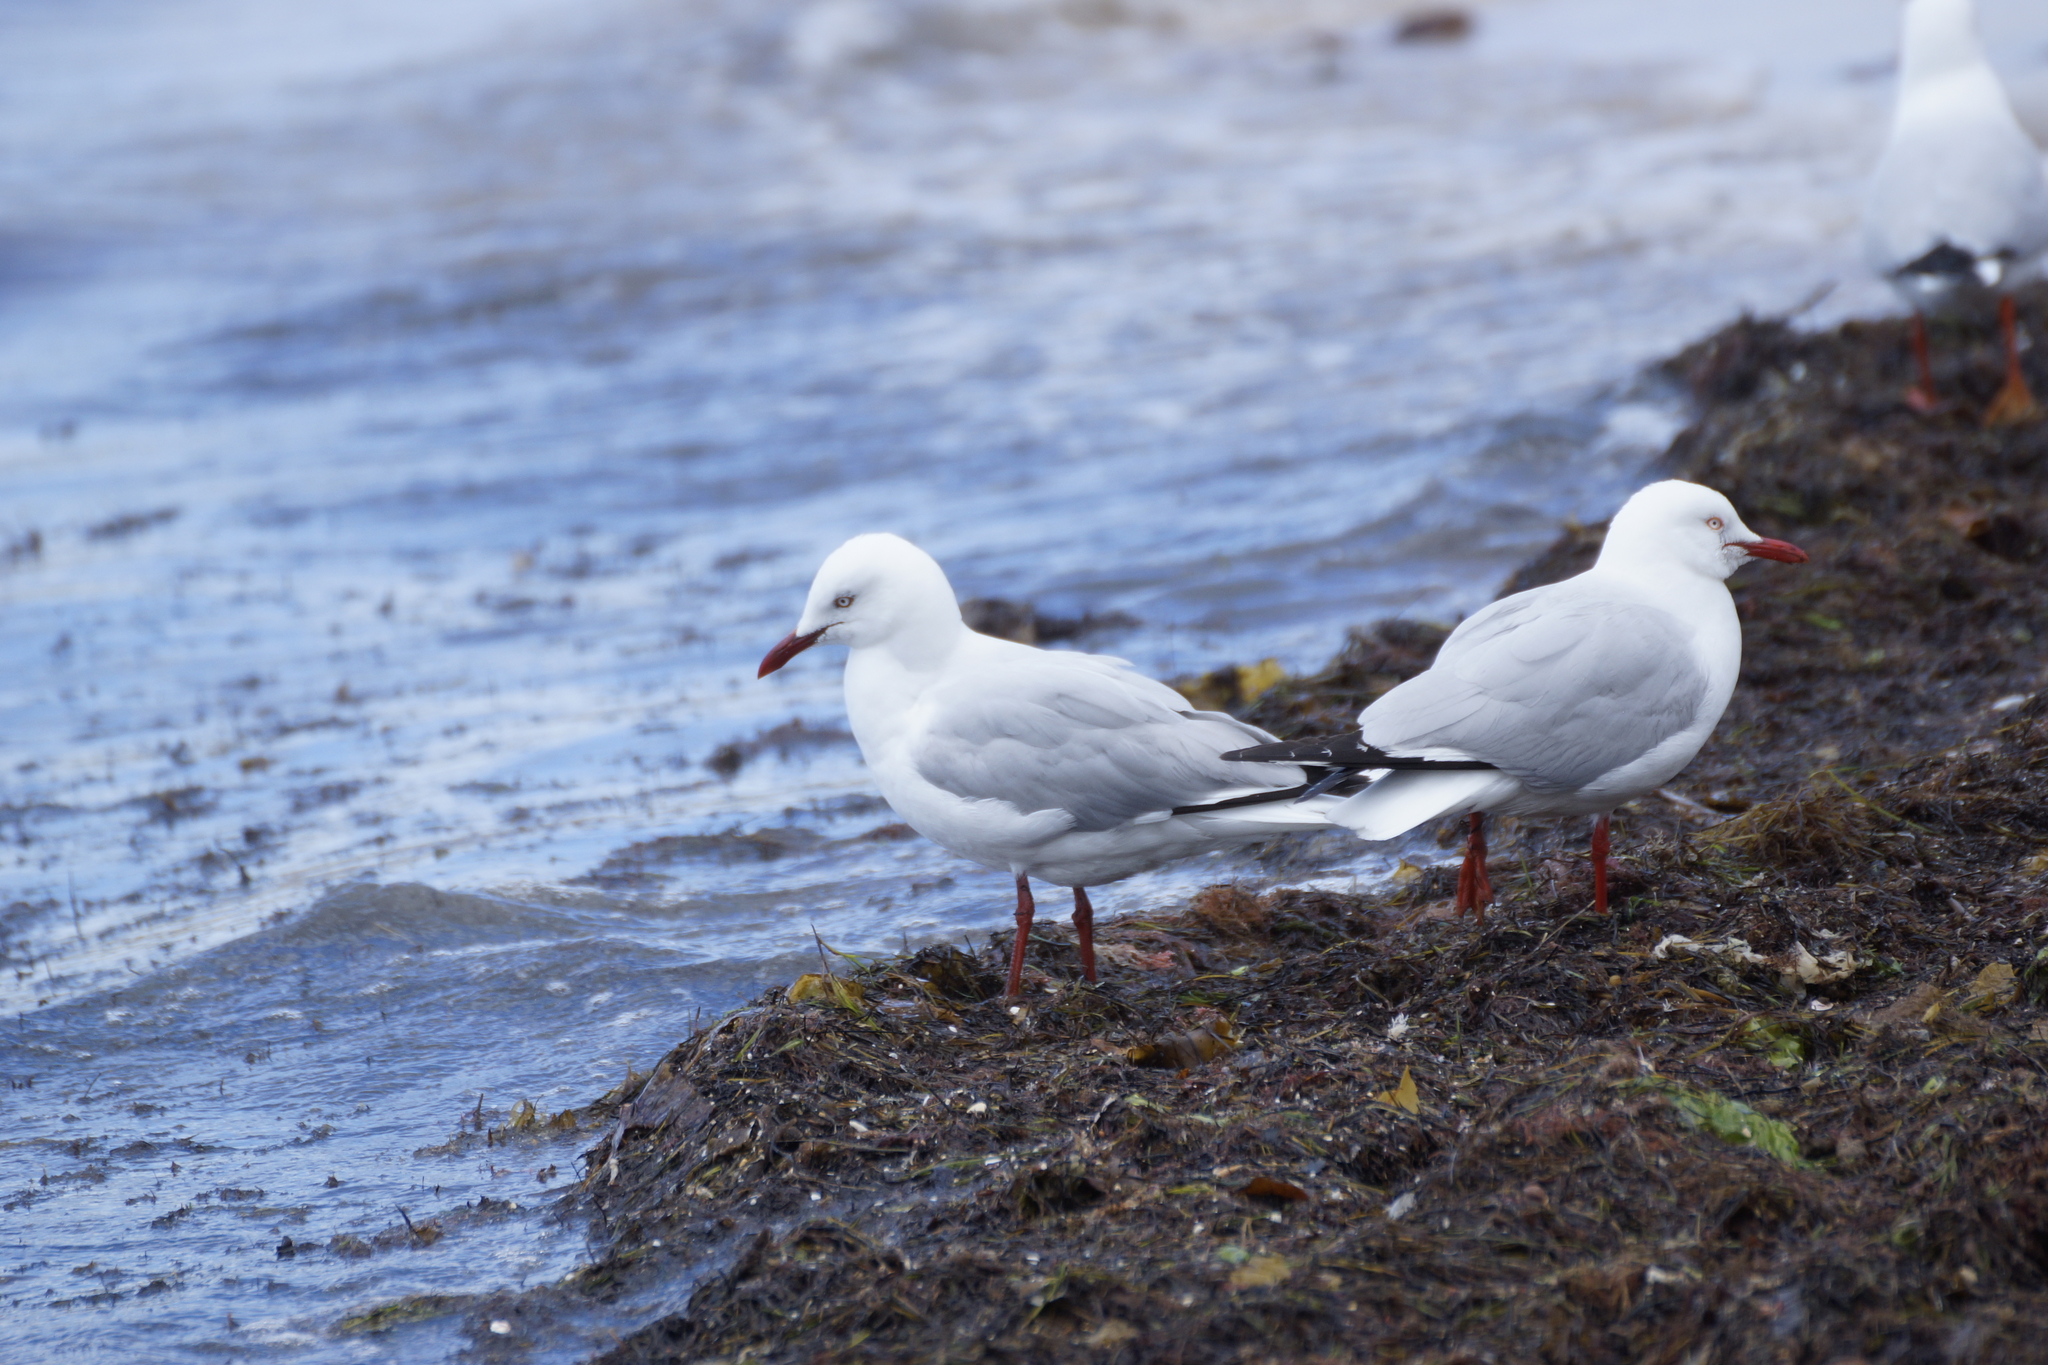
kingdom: Animalia
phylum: Chordata
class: Aves
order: Charadriiformes
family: Laridae
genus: Chroicocephalus
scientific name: Chroicocephalus novaehollandiae
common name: Silver gull
